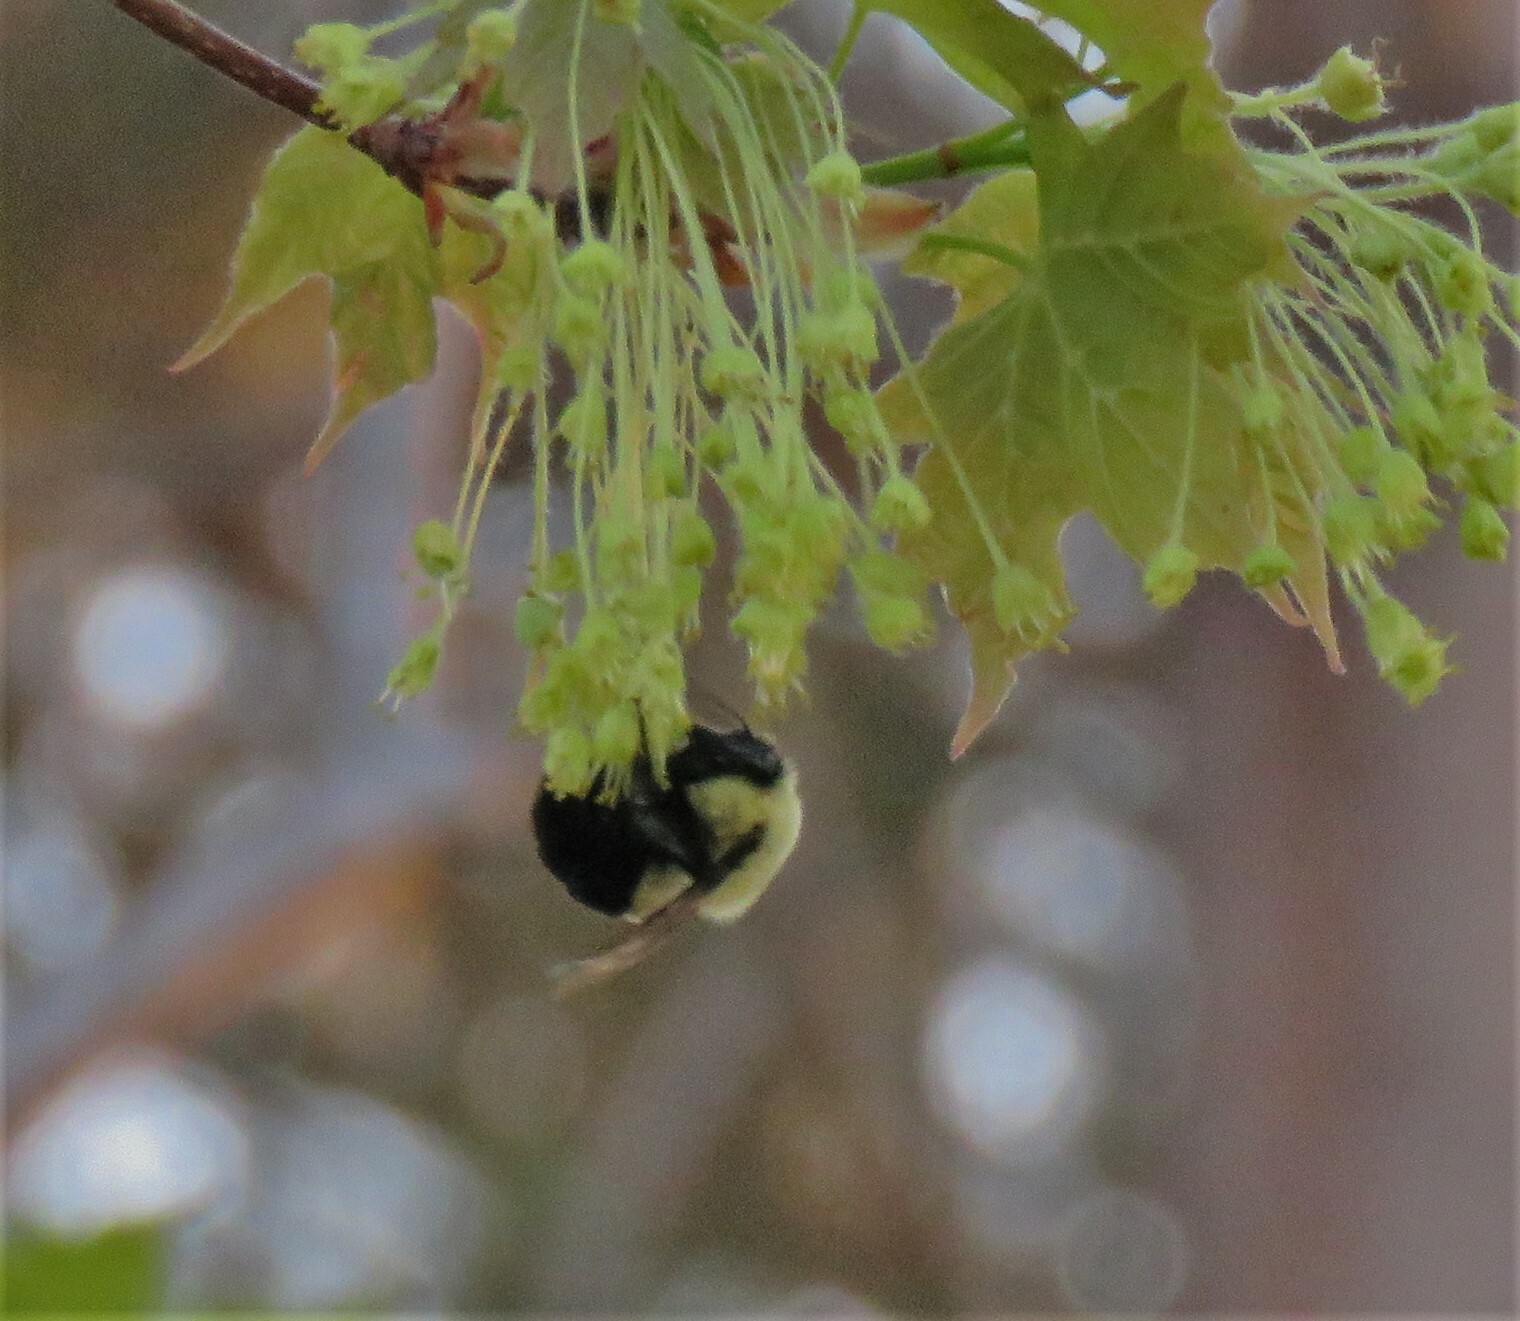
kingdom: Animalia
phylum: Arthropoda
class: Insecta
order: Hymenoptera
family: Apidae
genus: Bombus
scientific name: Bombus impatiens
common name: Common eastern bumble bee
